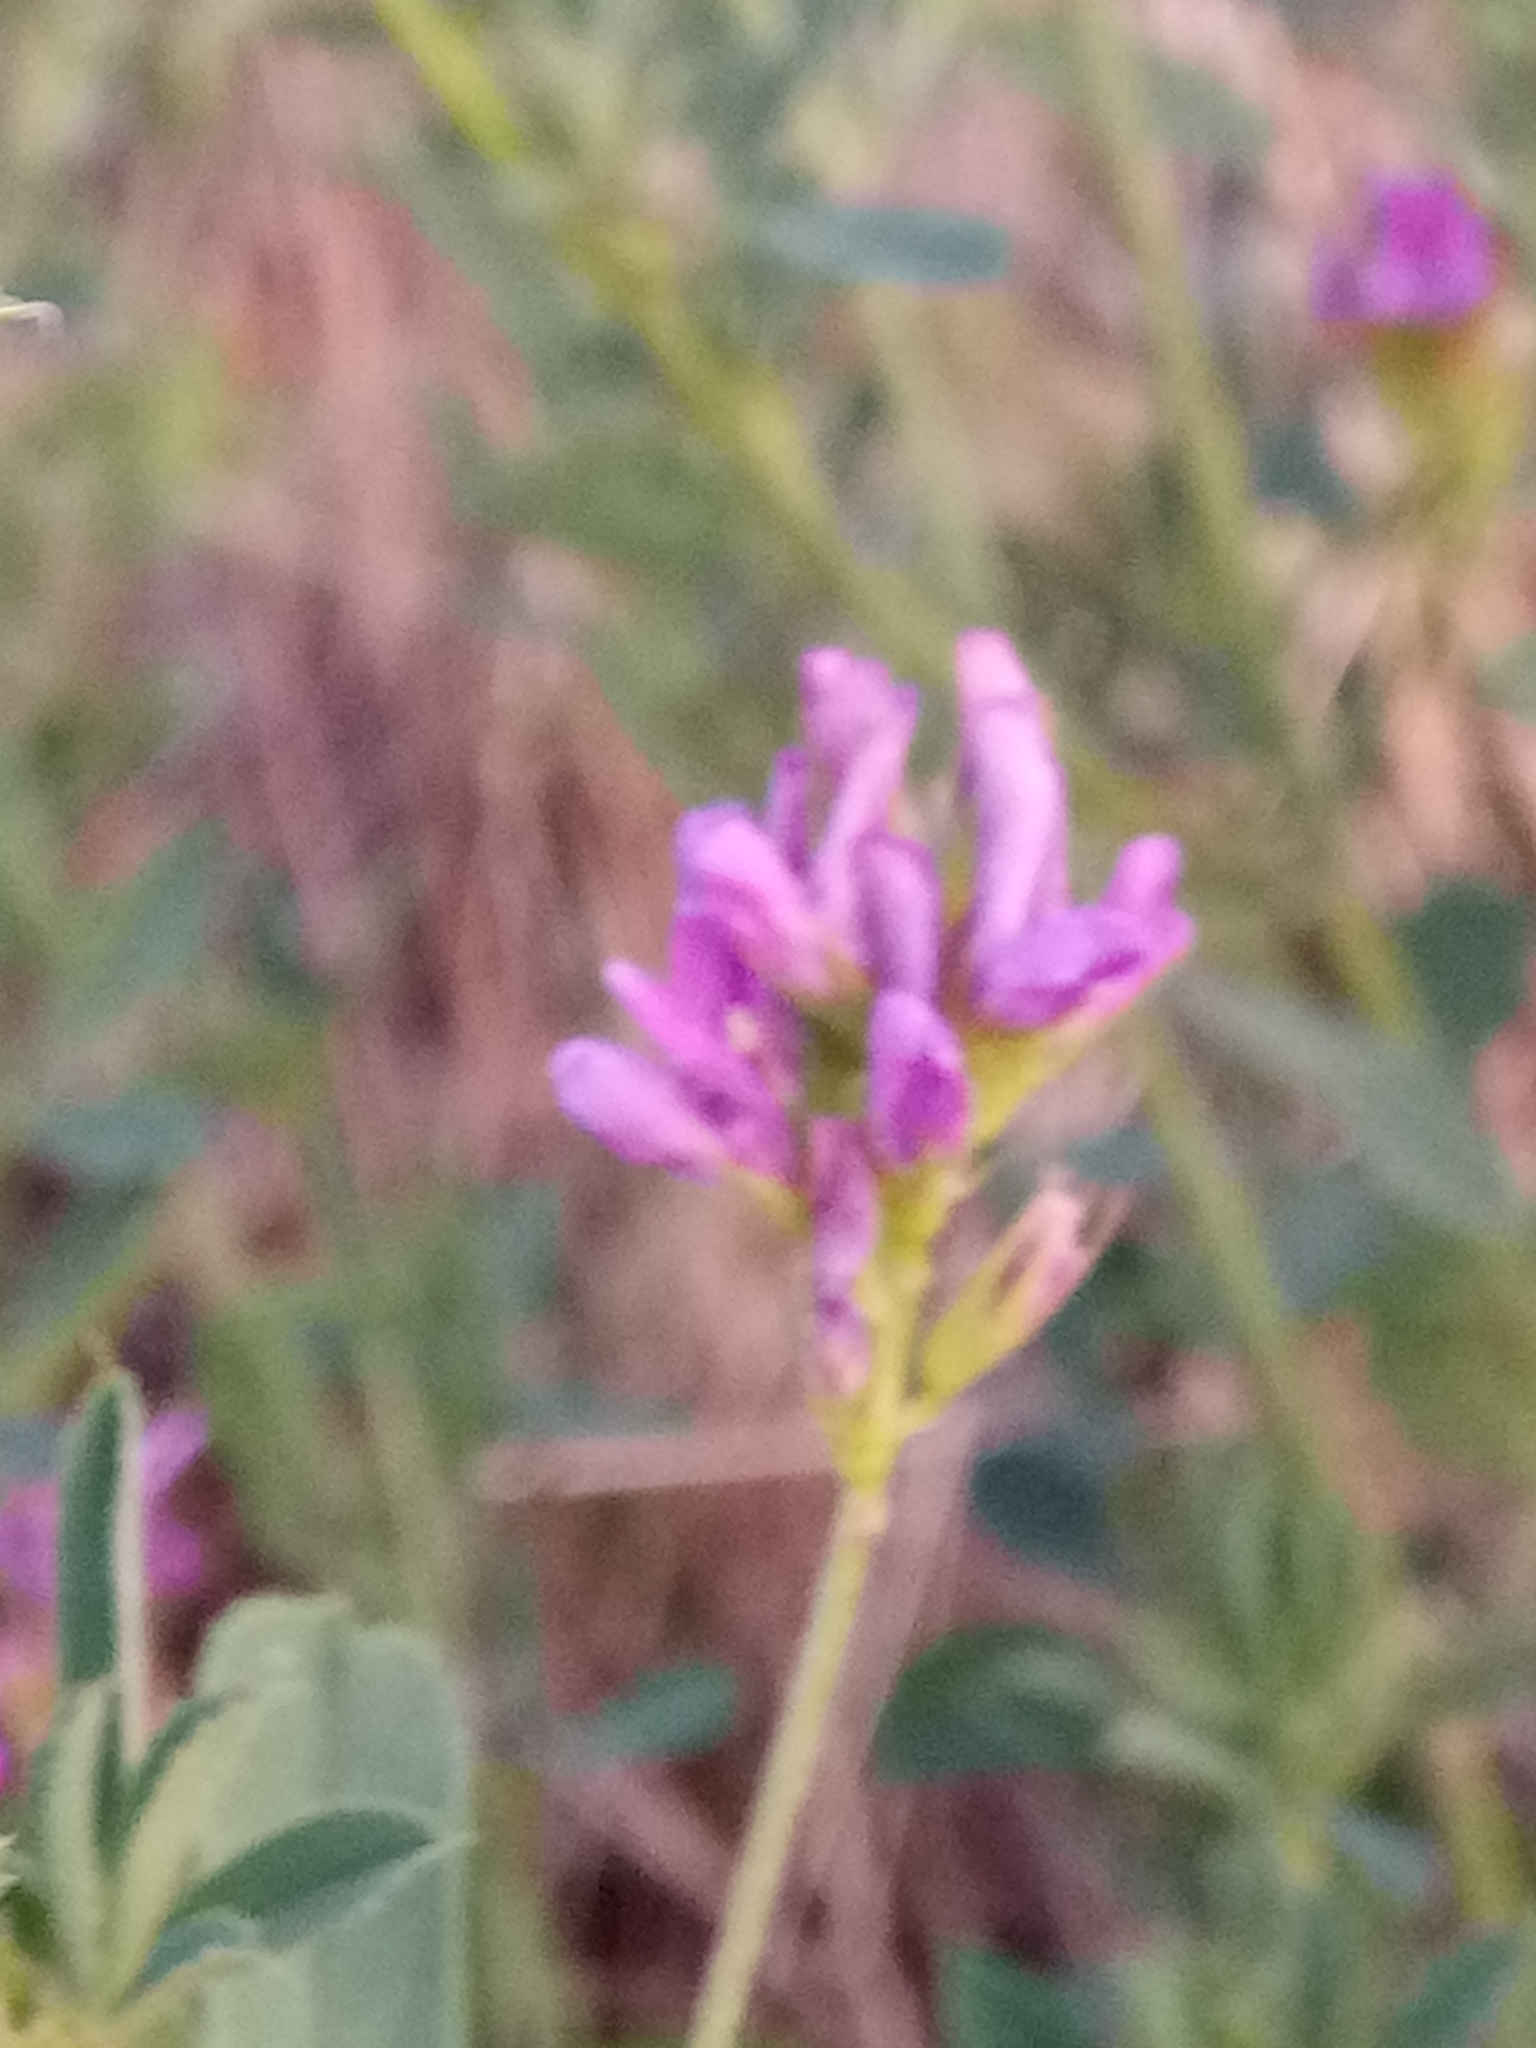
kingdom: Plantae
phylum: Tracheophyta
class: Magnoliopsida
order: Fabales
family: Fabaceae
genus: Medicago
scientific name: Medicago sativa
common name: Alfalfa
